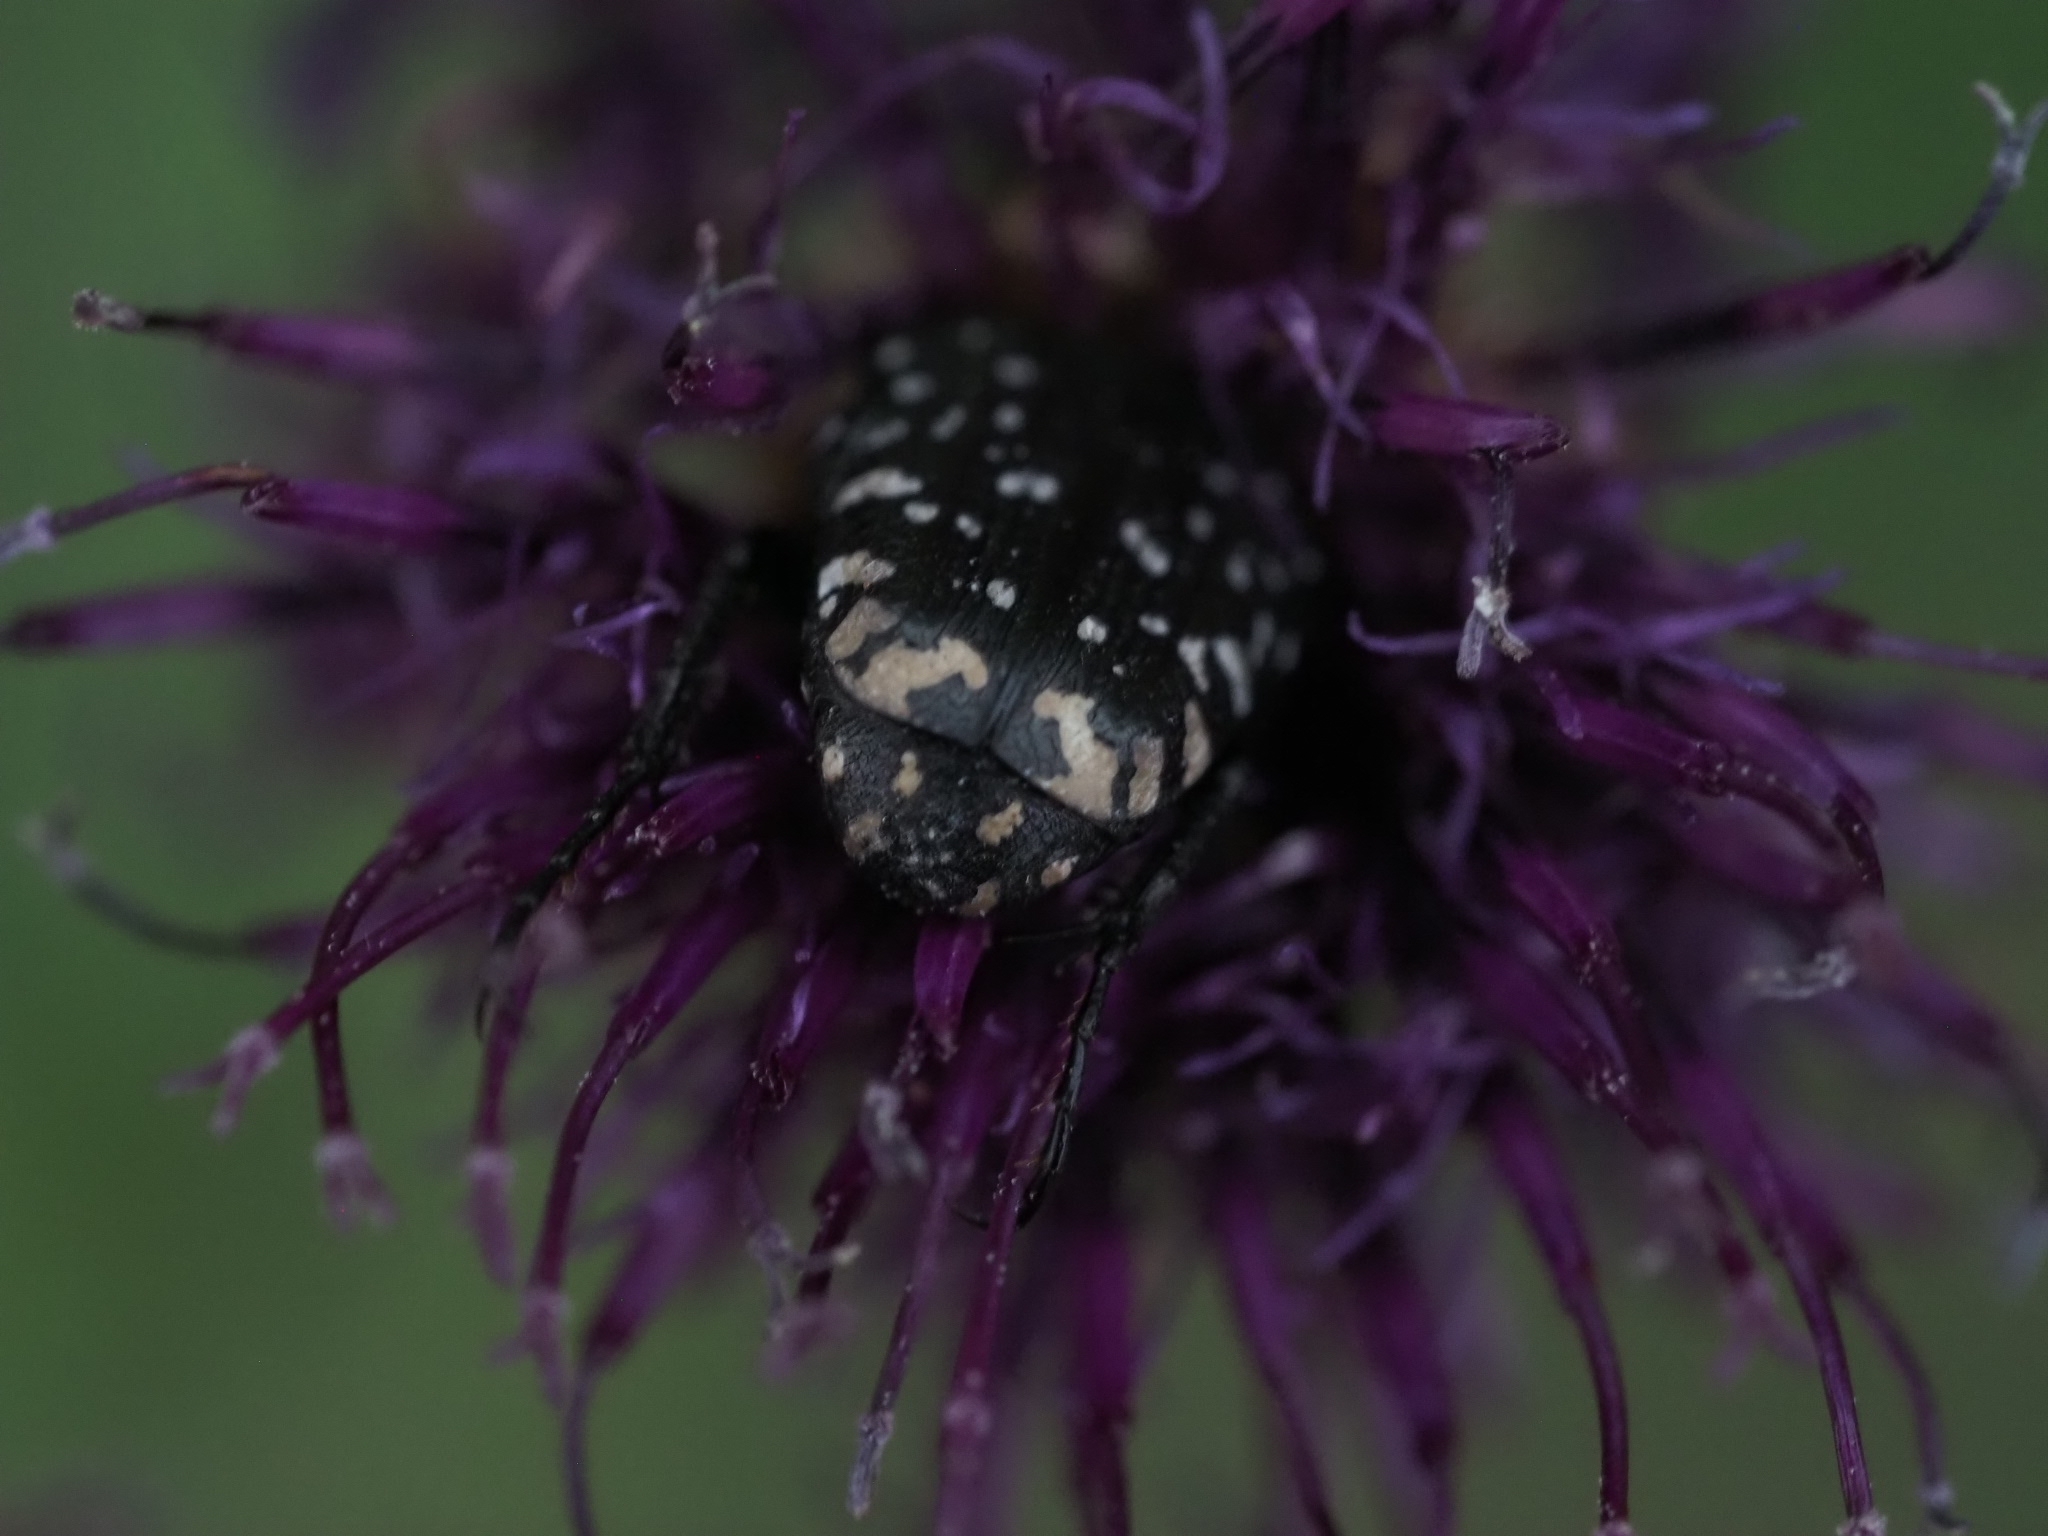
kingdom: Animalia
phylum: Arthropoda
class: Insecta
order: Coleoptera
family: Scarabaeidae
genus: Oxythyrea
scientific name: Oxythyrea funesta
